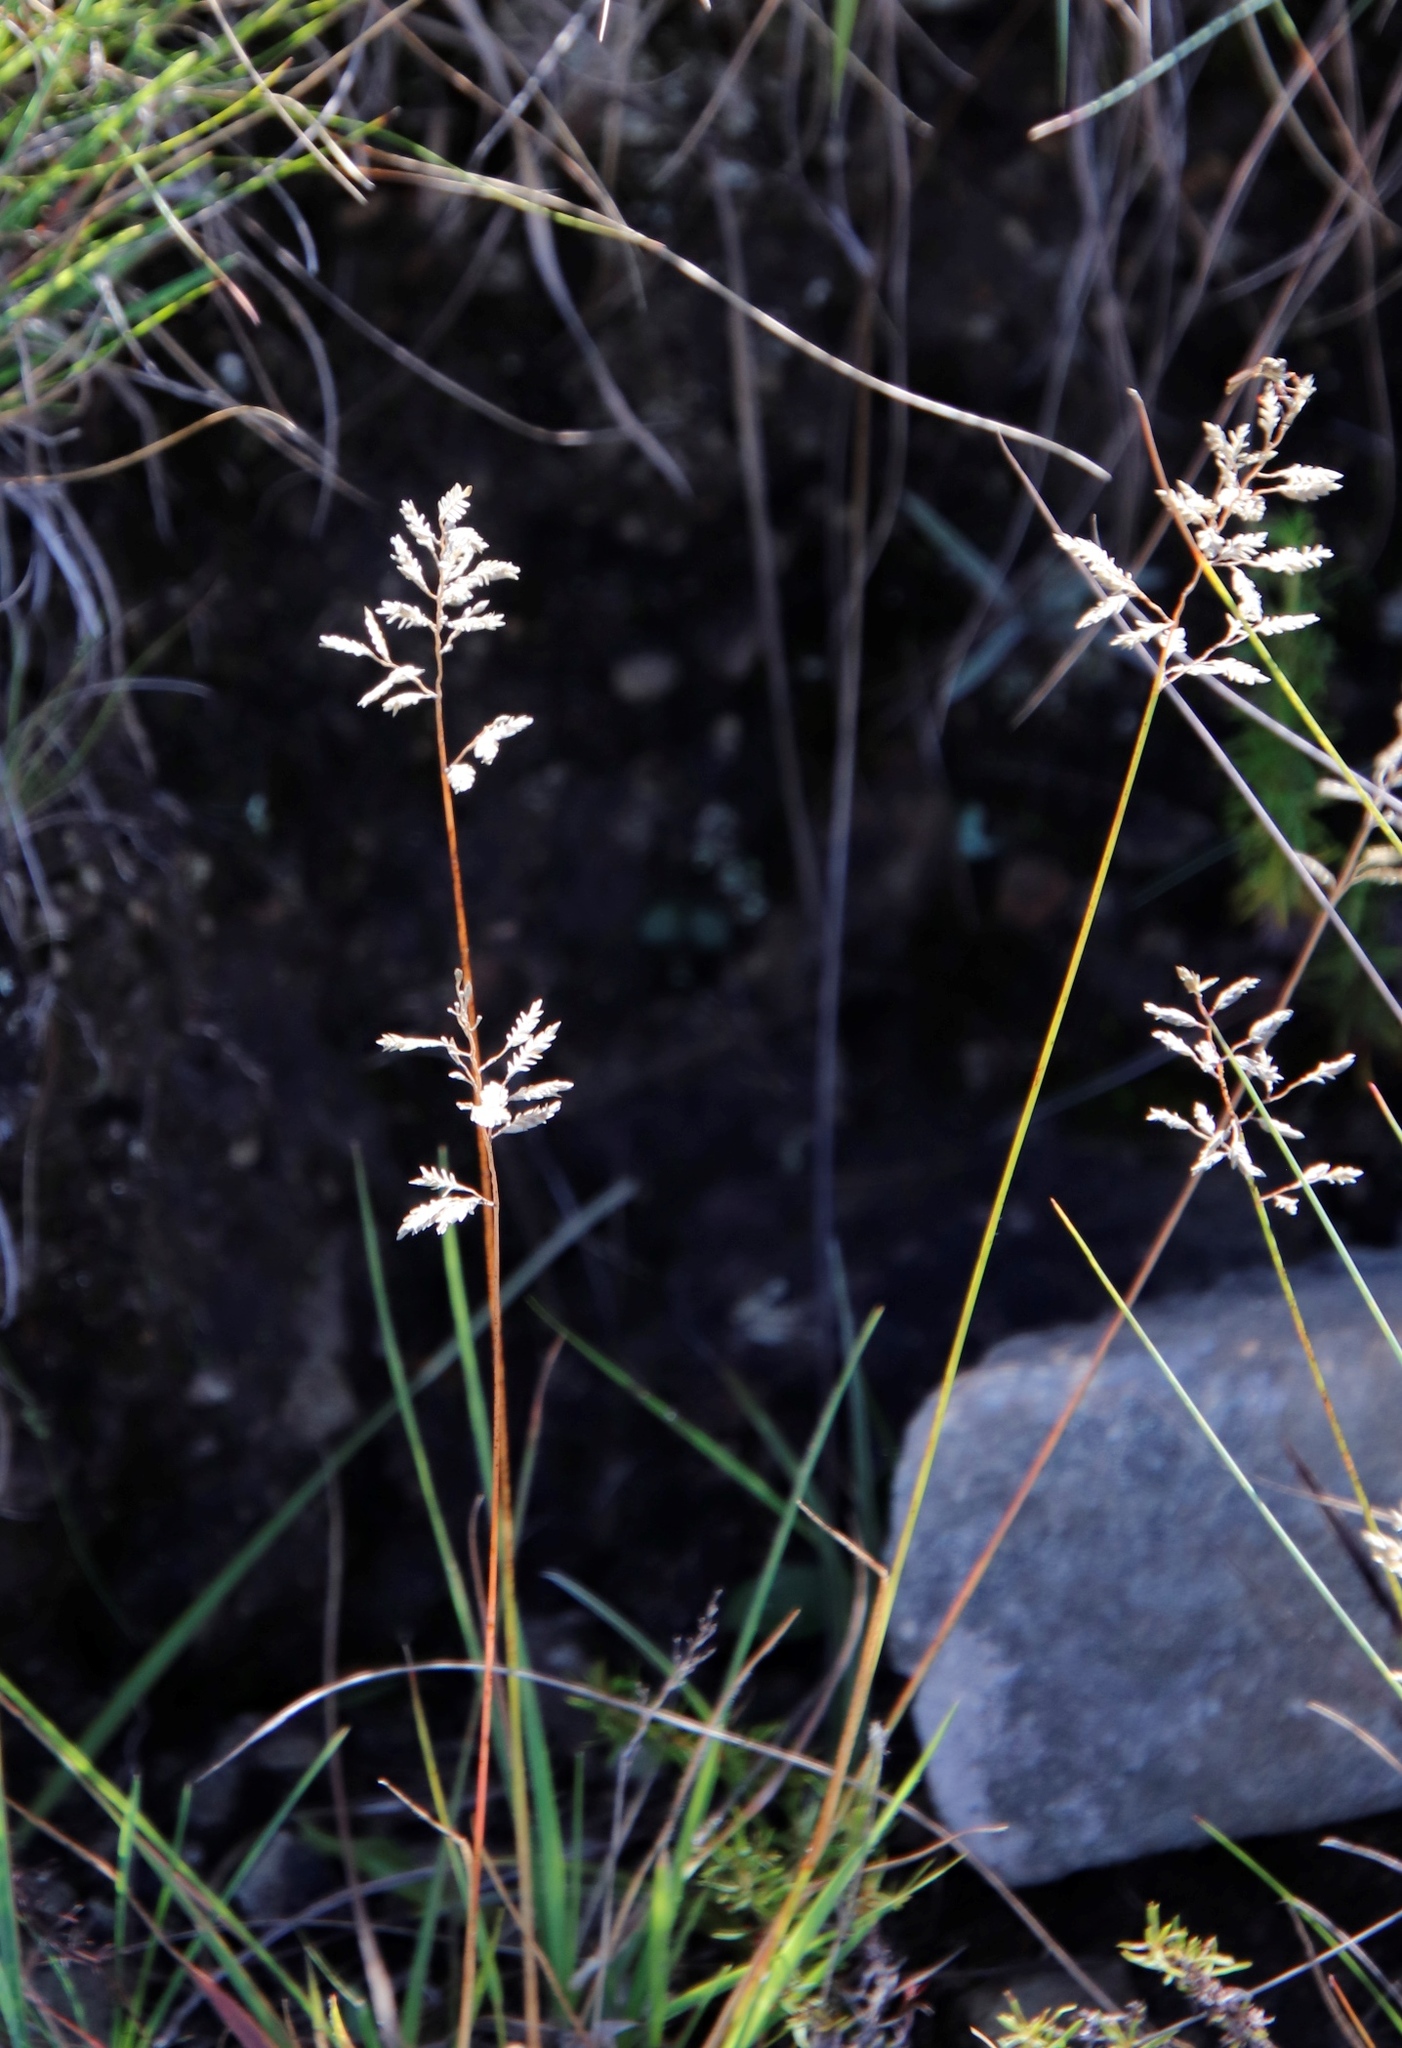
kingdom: Plantae
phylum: Tracheophyta
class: Liliopsida
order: Poales
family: Poaceae
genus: Eragrostis
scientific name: Eragrostis racemosa
